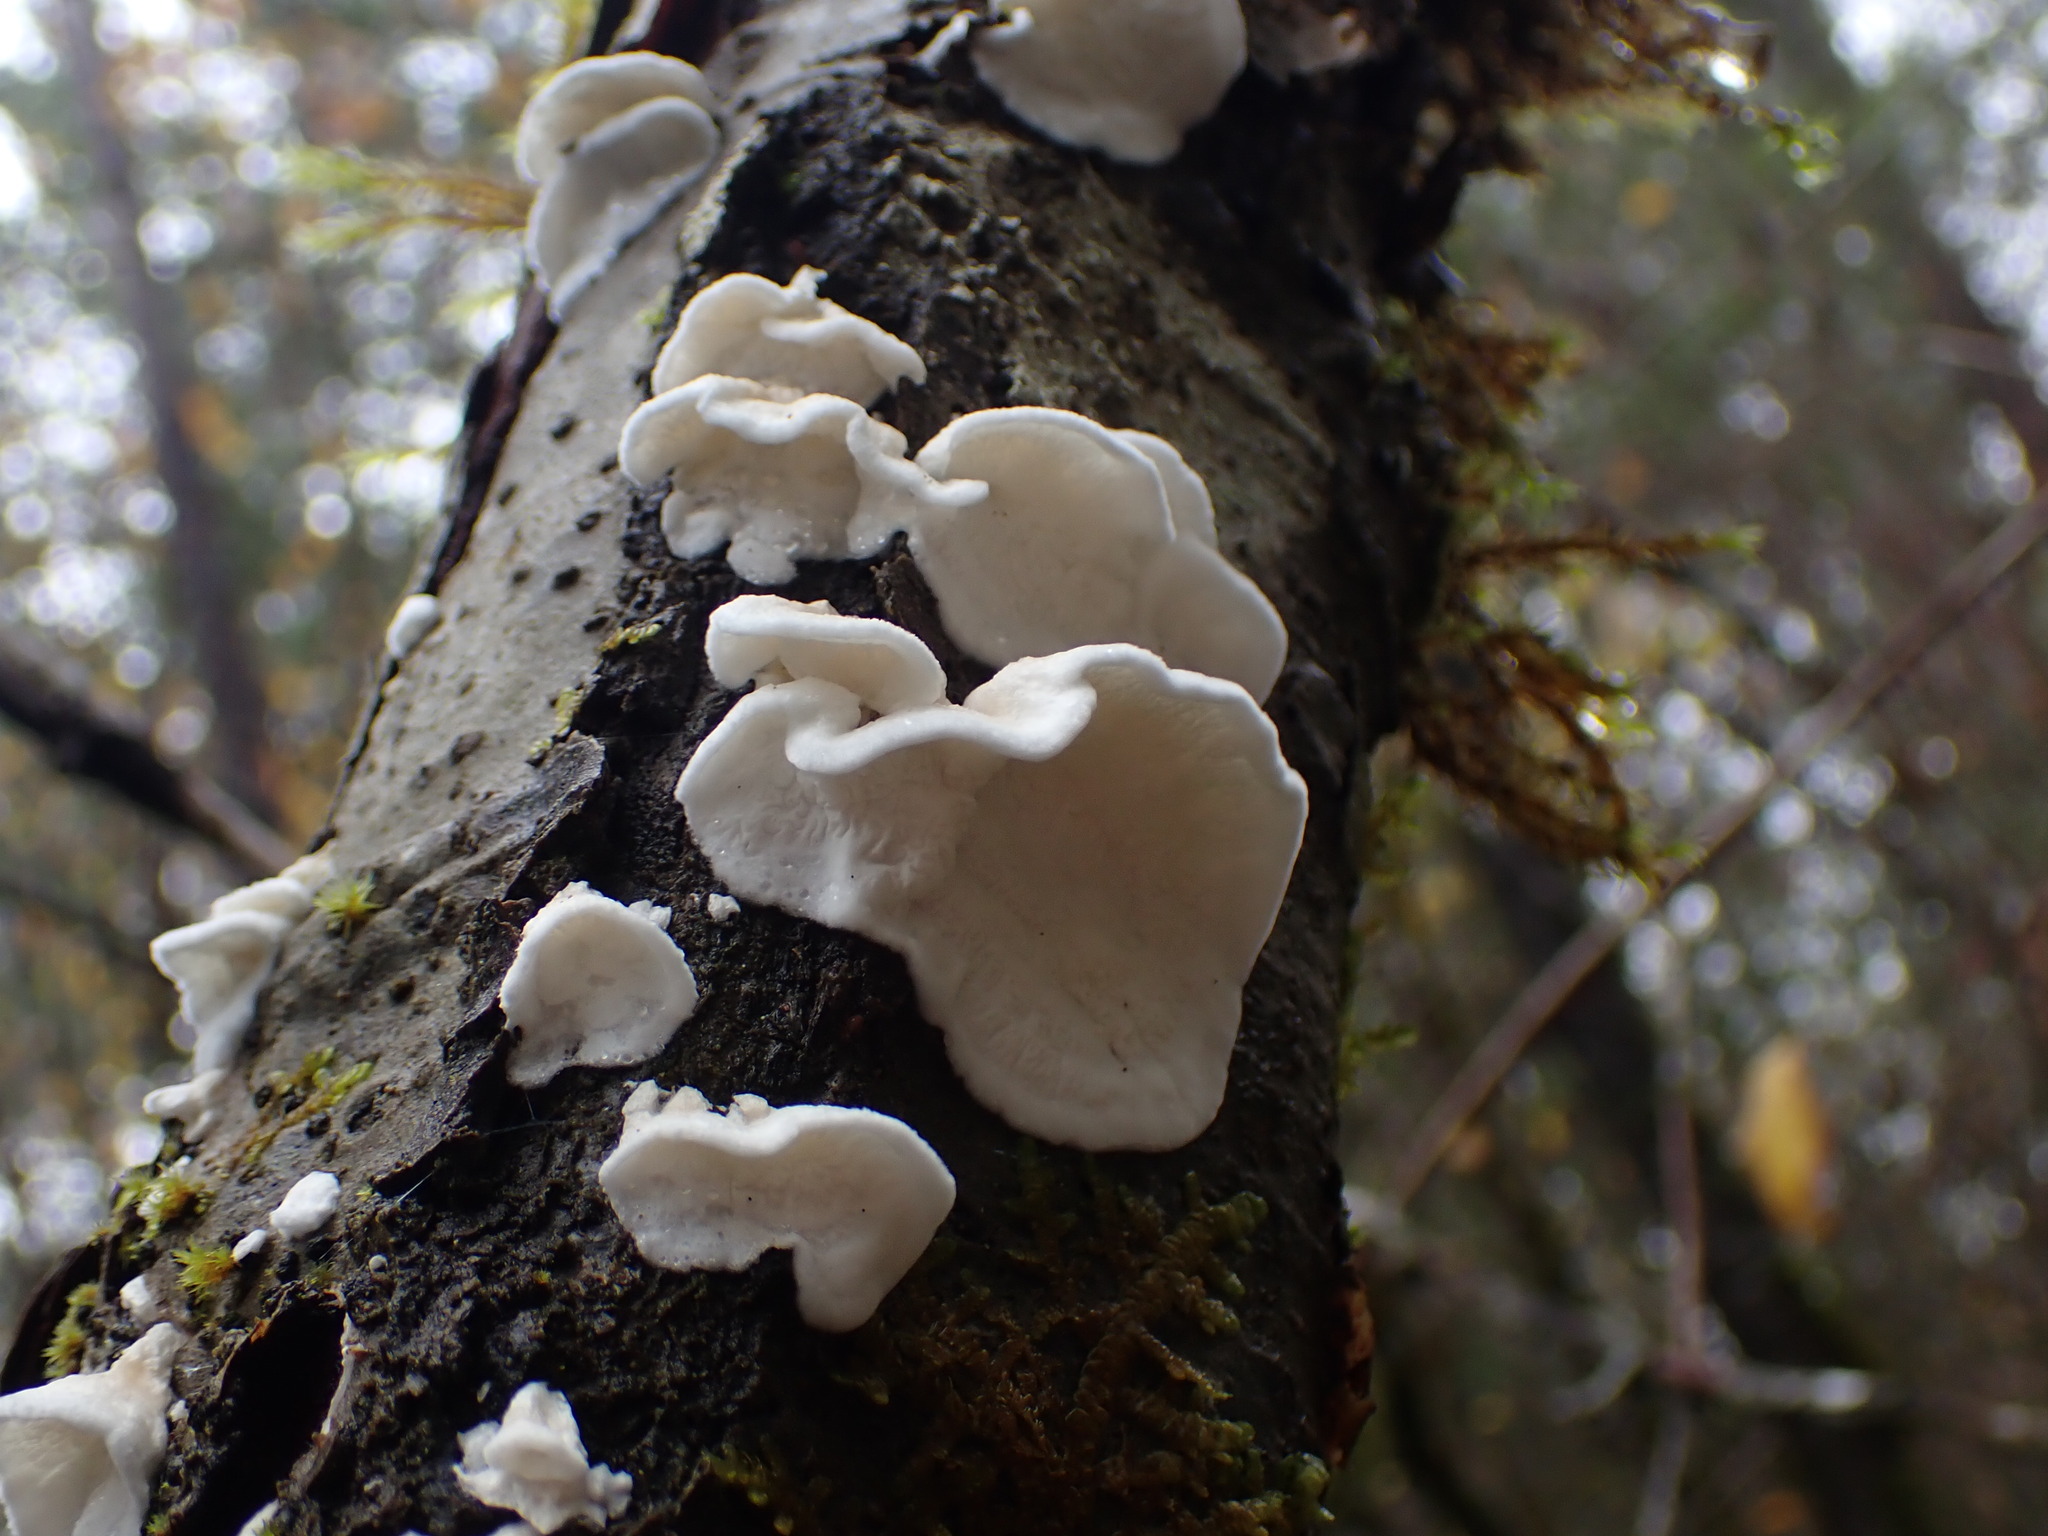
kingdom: Fungi
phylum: Basidiomycota
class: Agaricomycetes
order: Agaricales
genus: Plicatura
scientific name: Plicatura nivea
